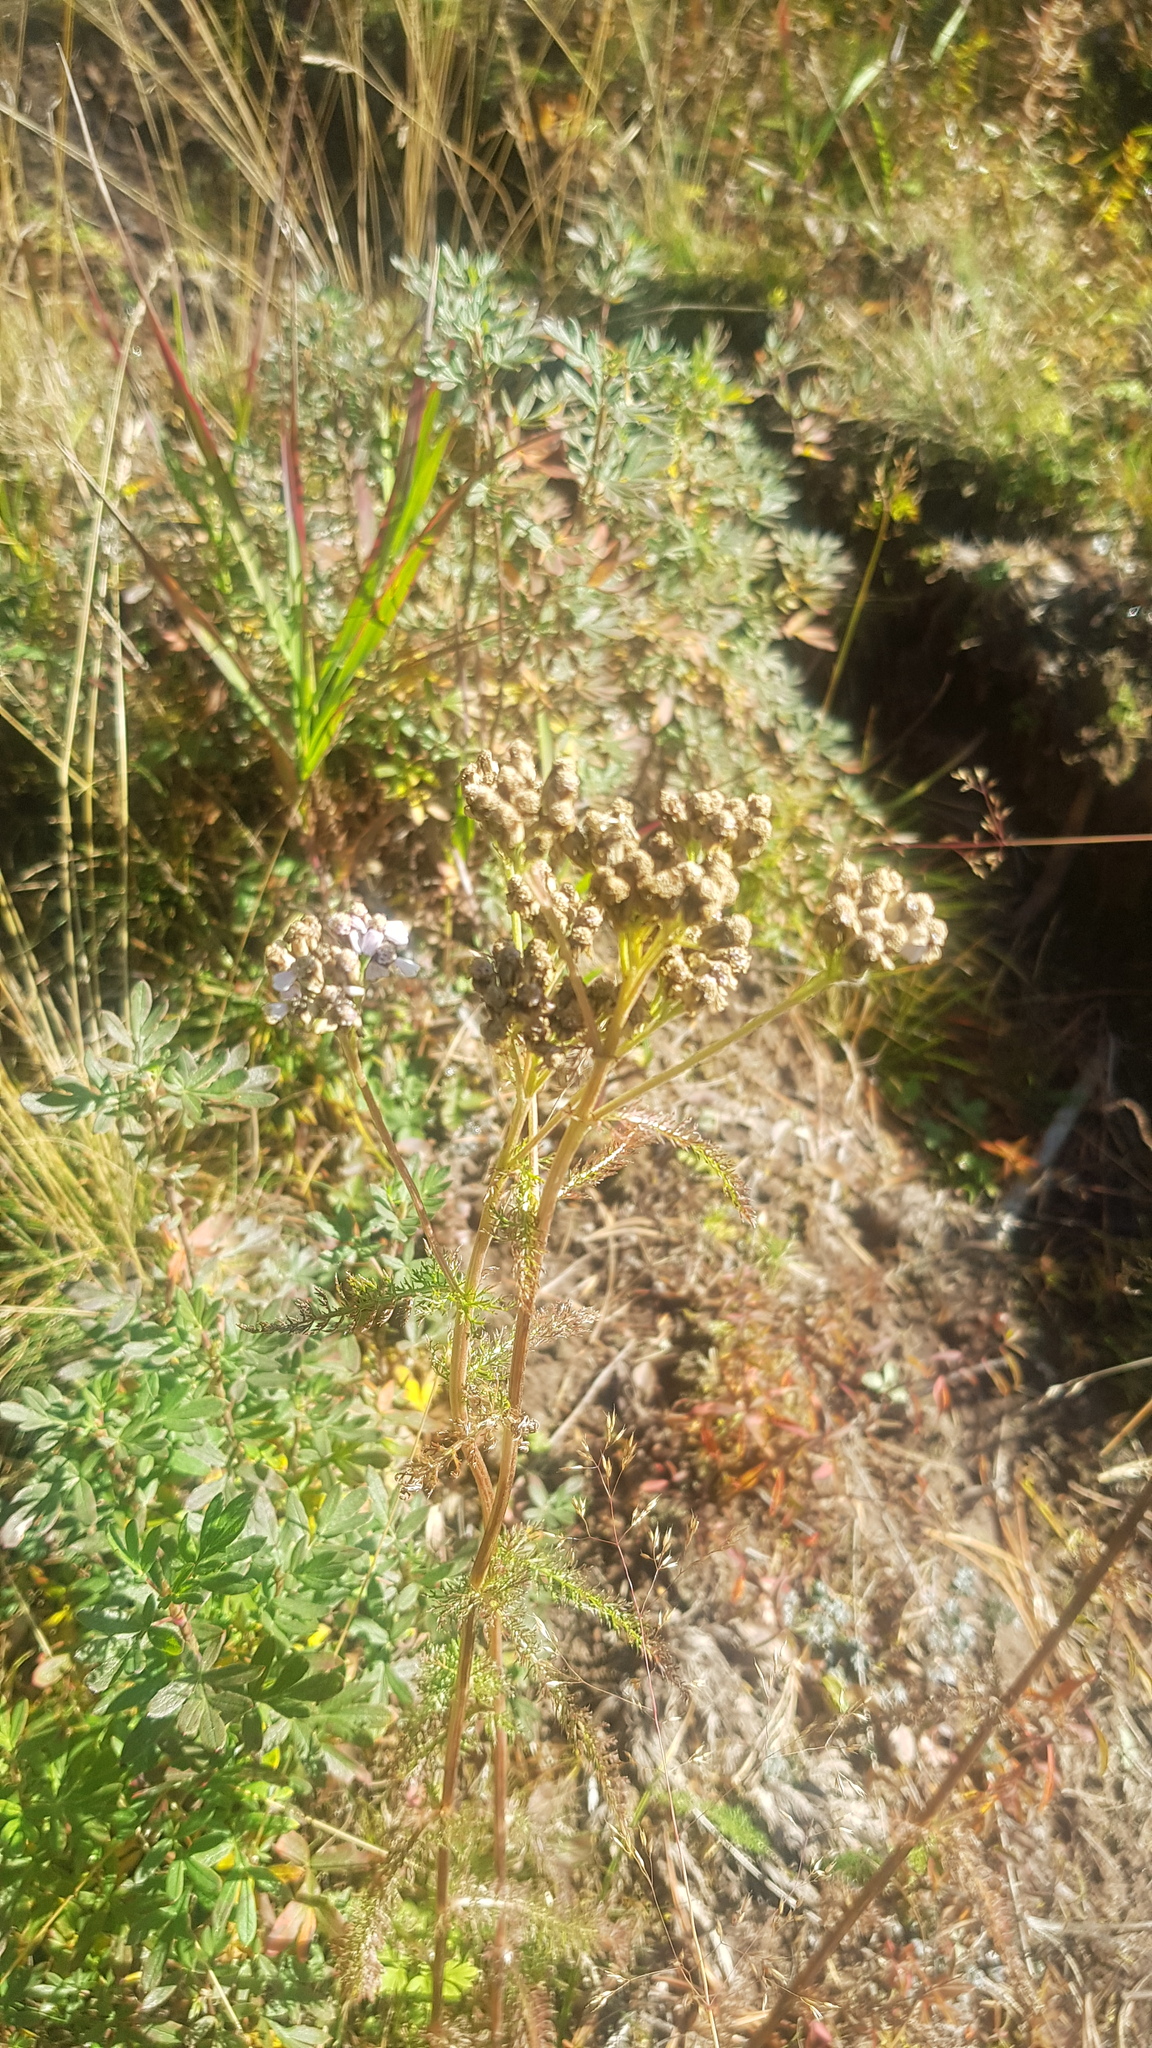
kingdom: Plantae
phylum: Tracheophyta
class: Magnoliopsida
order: Asterales
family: Asteraceae
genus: Achillea
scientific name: Achillea asiatica
